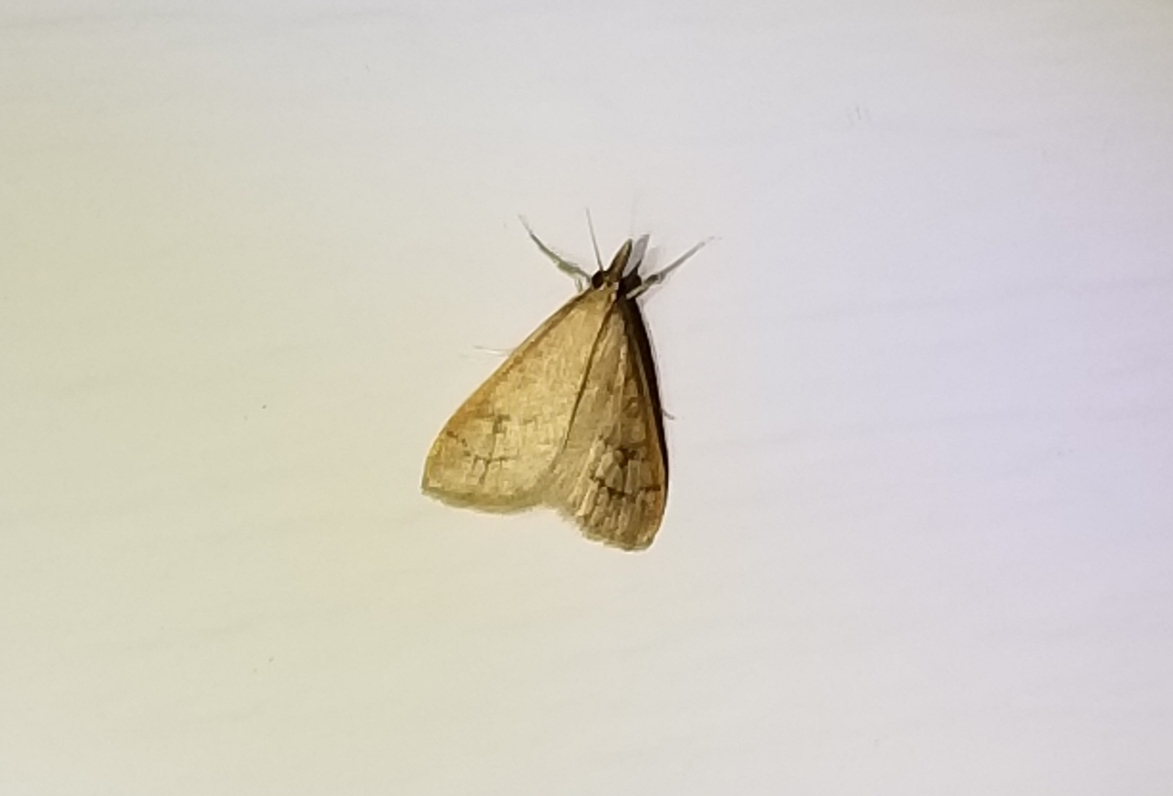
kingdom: Animalia
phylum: Arthropoda
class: Insecta
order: Lepidoptera
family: Crambidae
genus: Udea
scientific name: Udea rubigalis
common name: Celery leaftier moth
